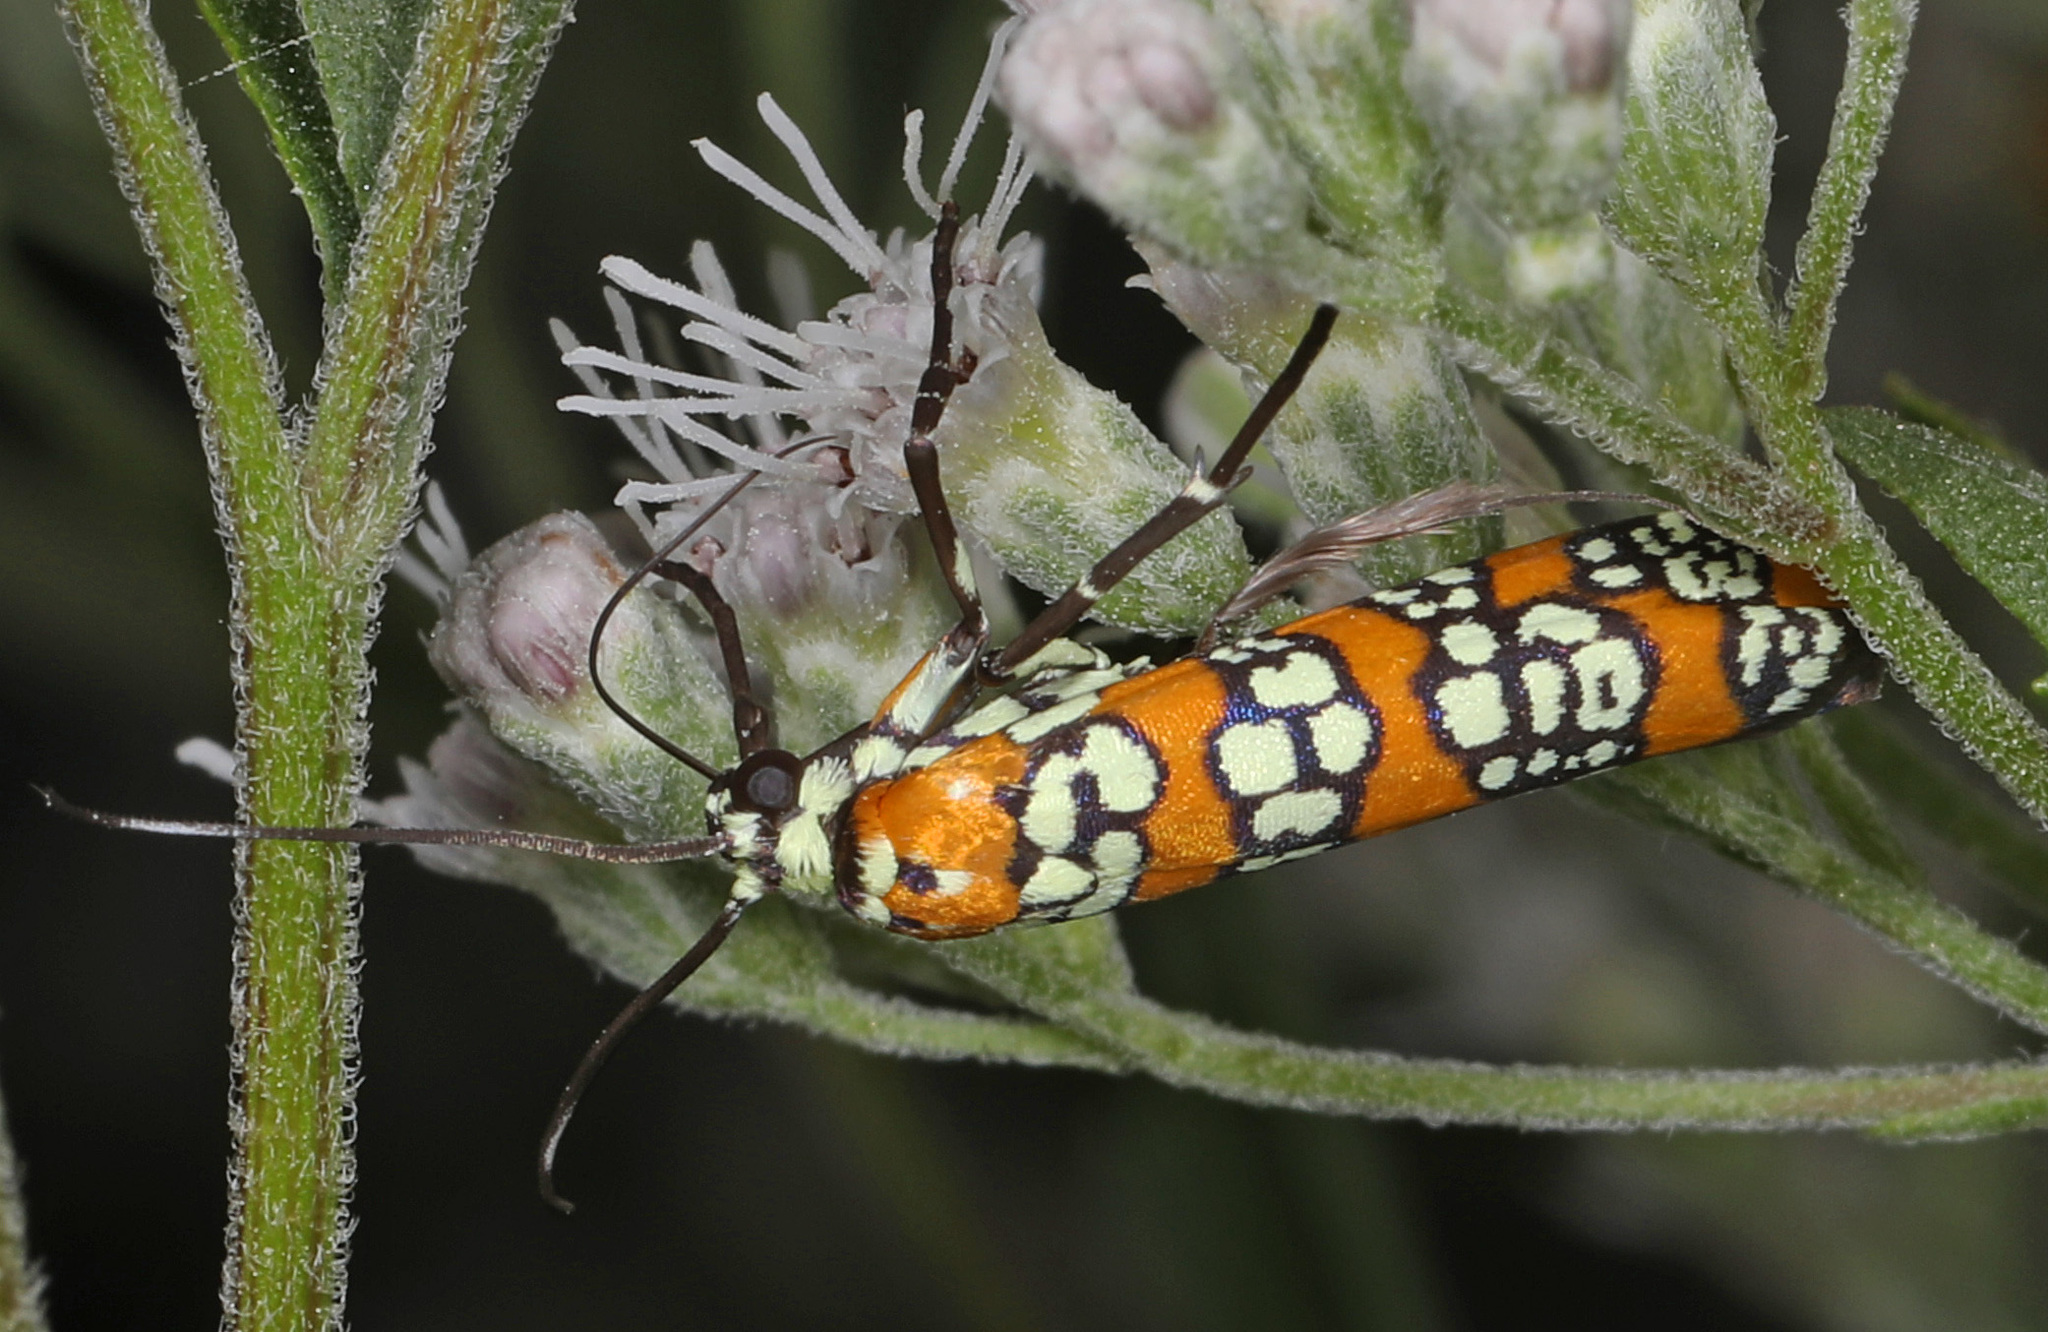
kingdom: Animalia
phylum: Arthropoda
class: Insecta
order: Lepidoptera
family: Attevidae
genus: Atteva
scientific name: Atteva punctella
